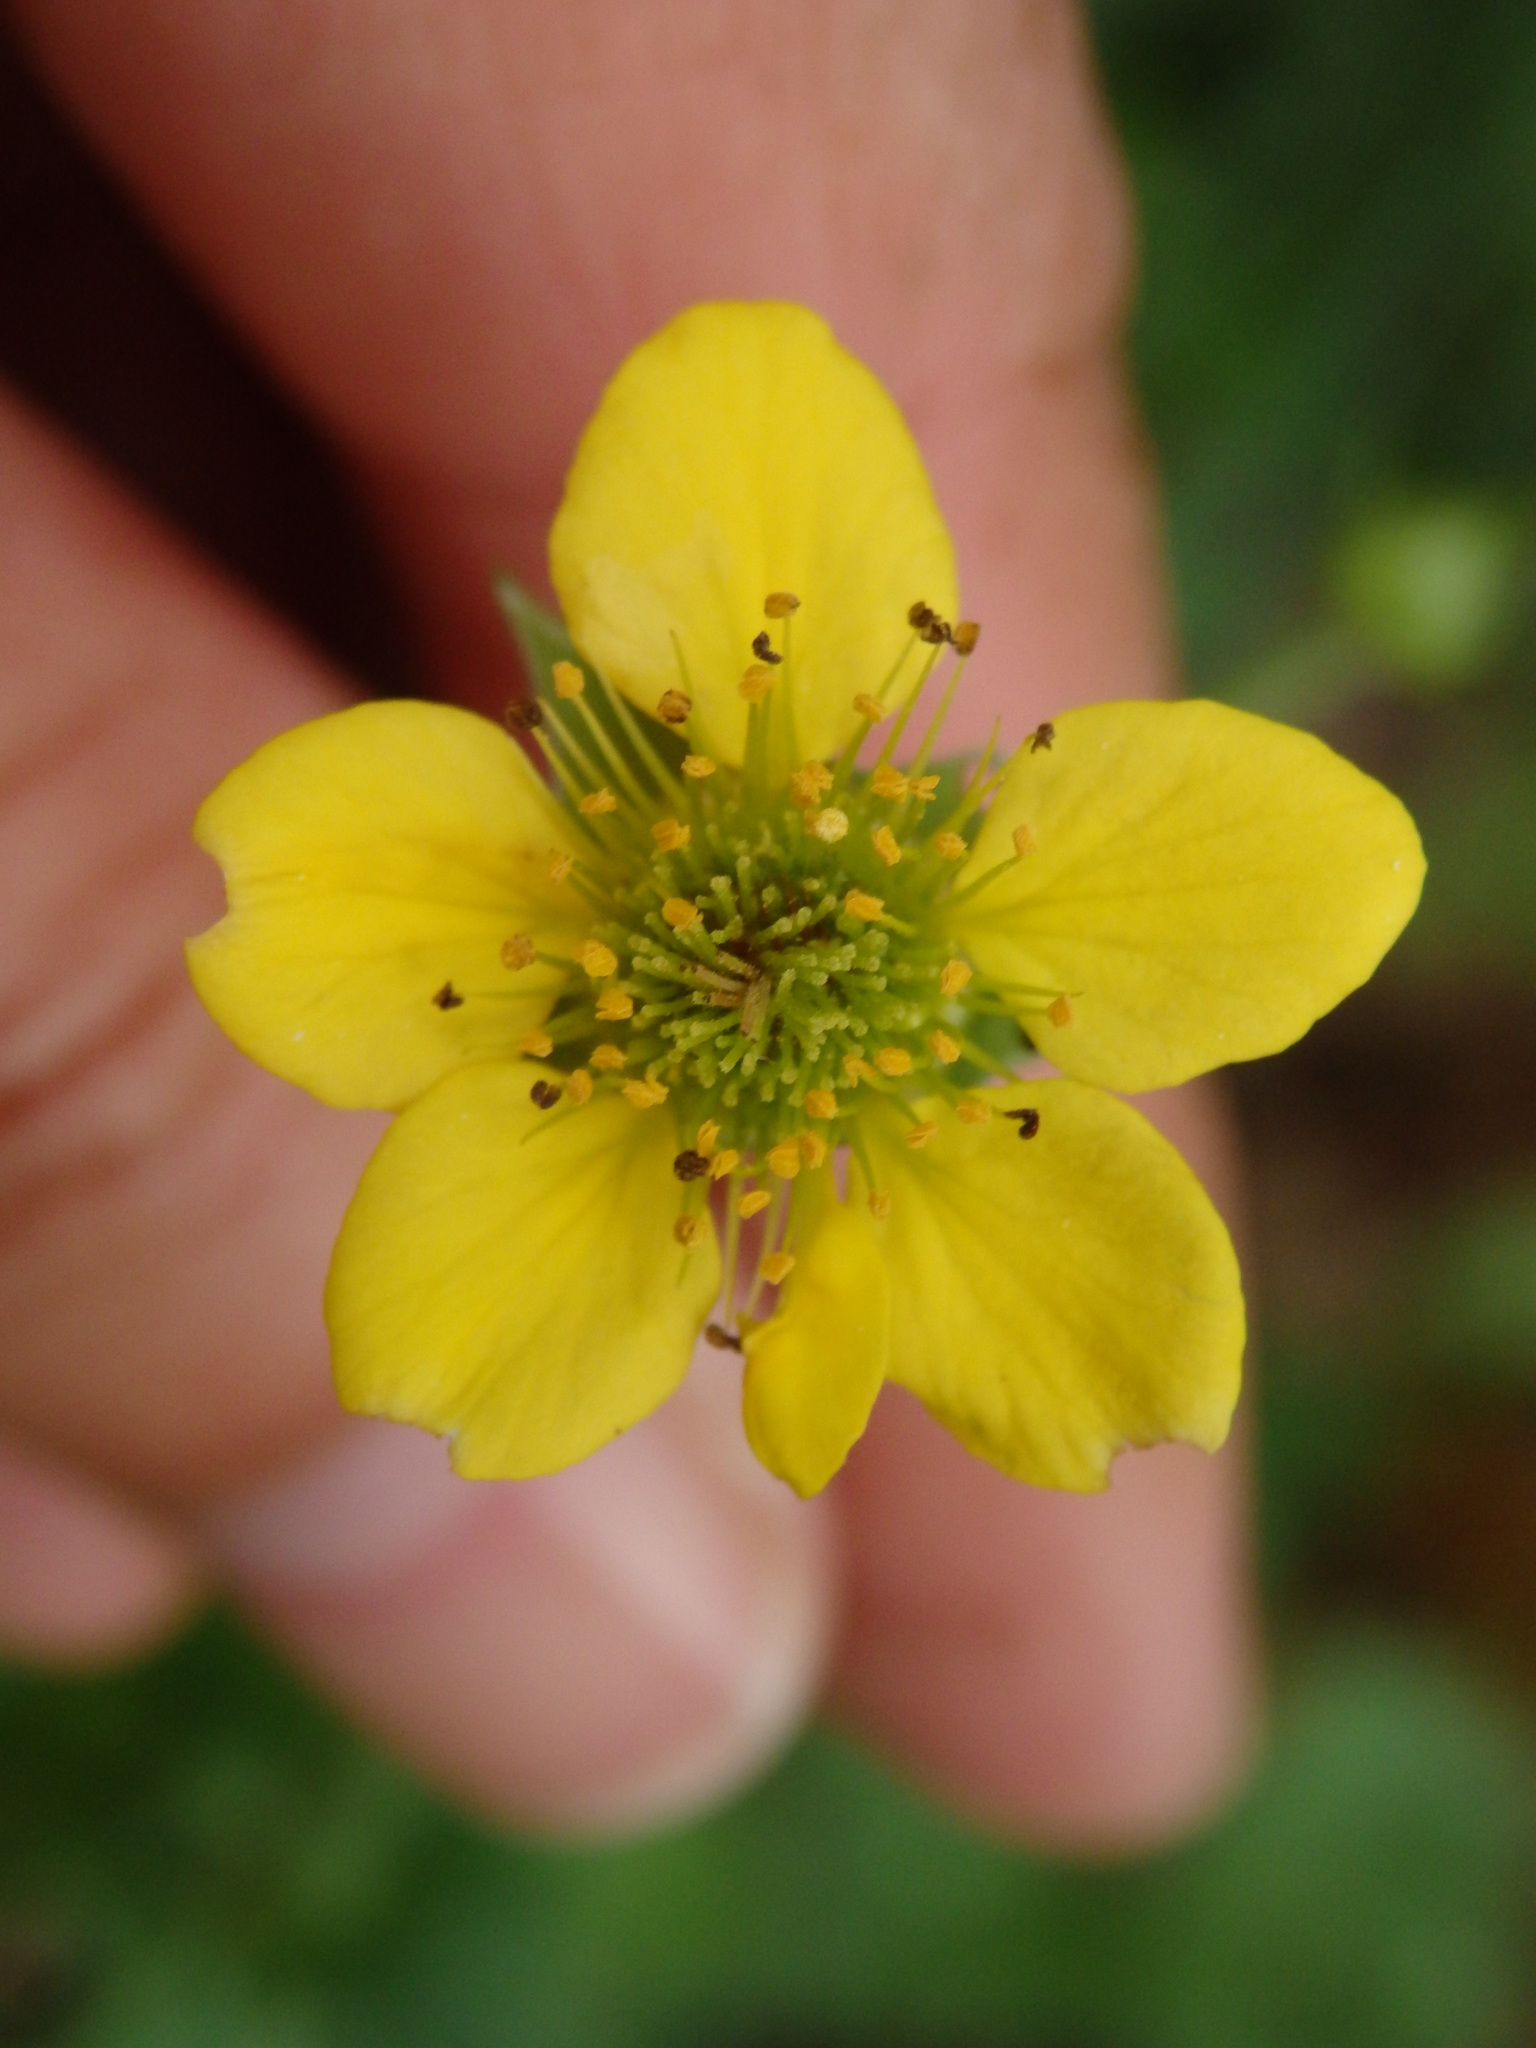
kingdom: Plantae
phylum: Tracheophyta
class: Magnoliopsida
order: Rosales
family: Rosaceae
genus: Geum
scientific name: Geum urbanum
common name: Wood avens
